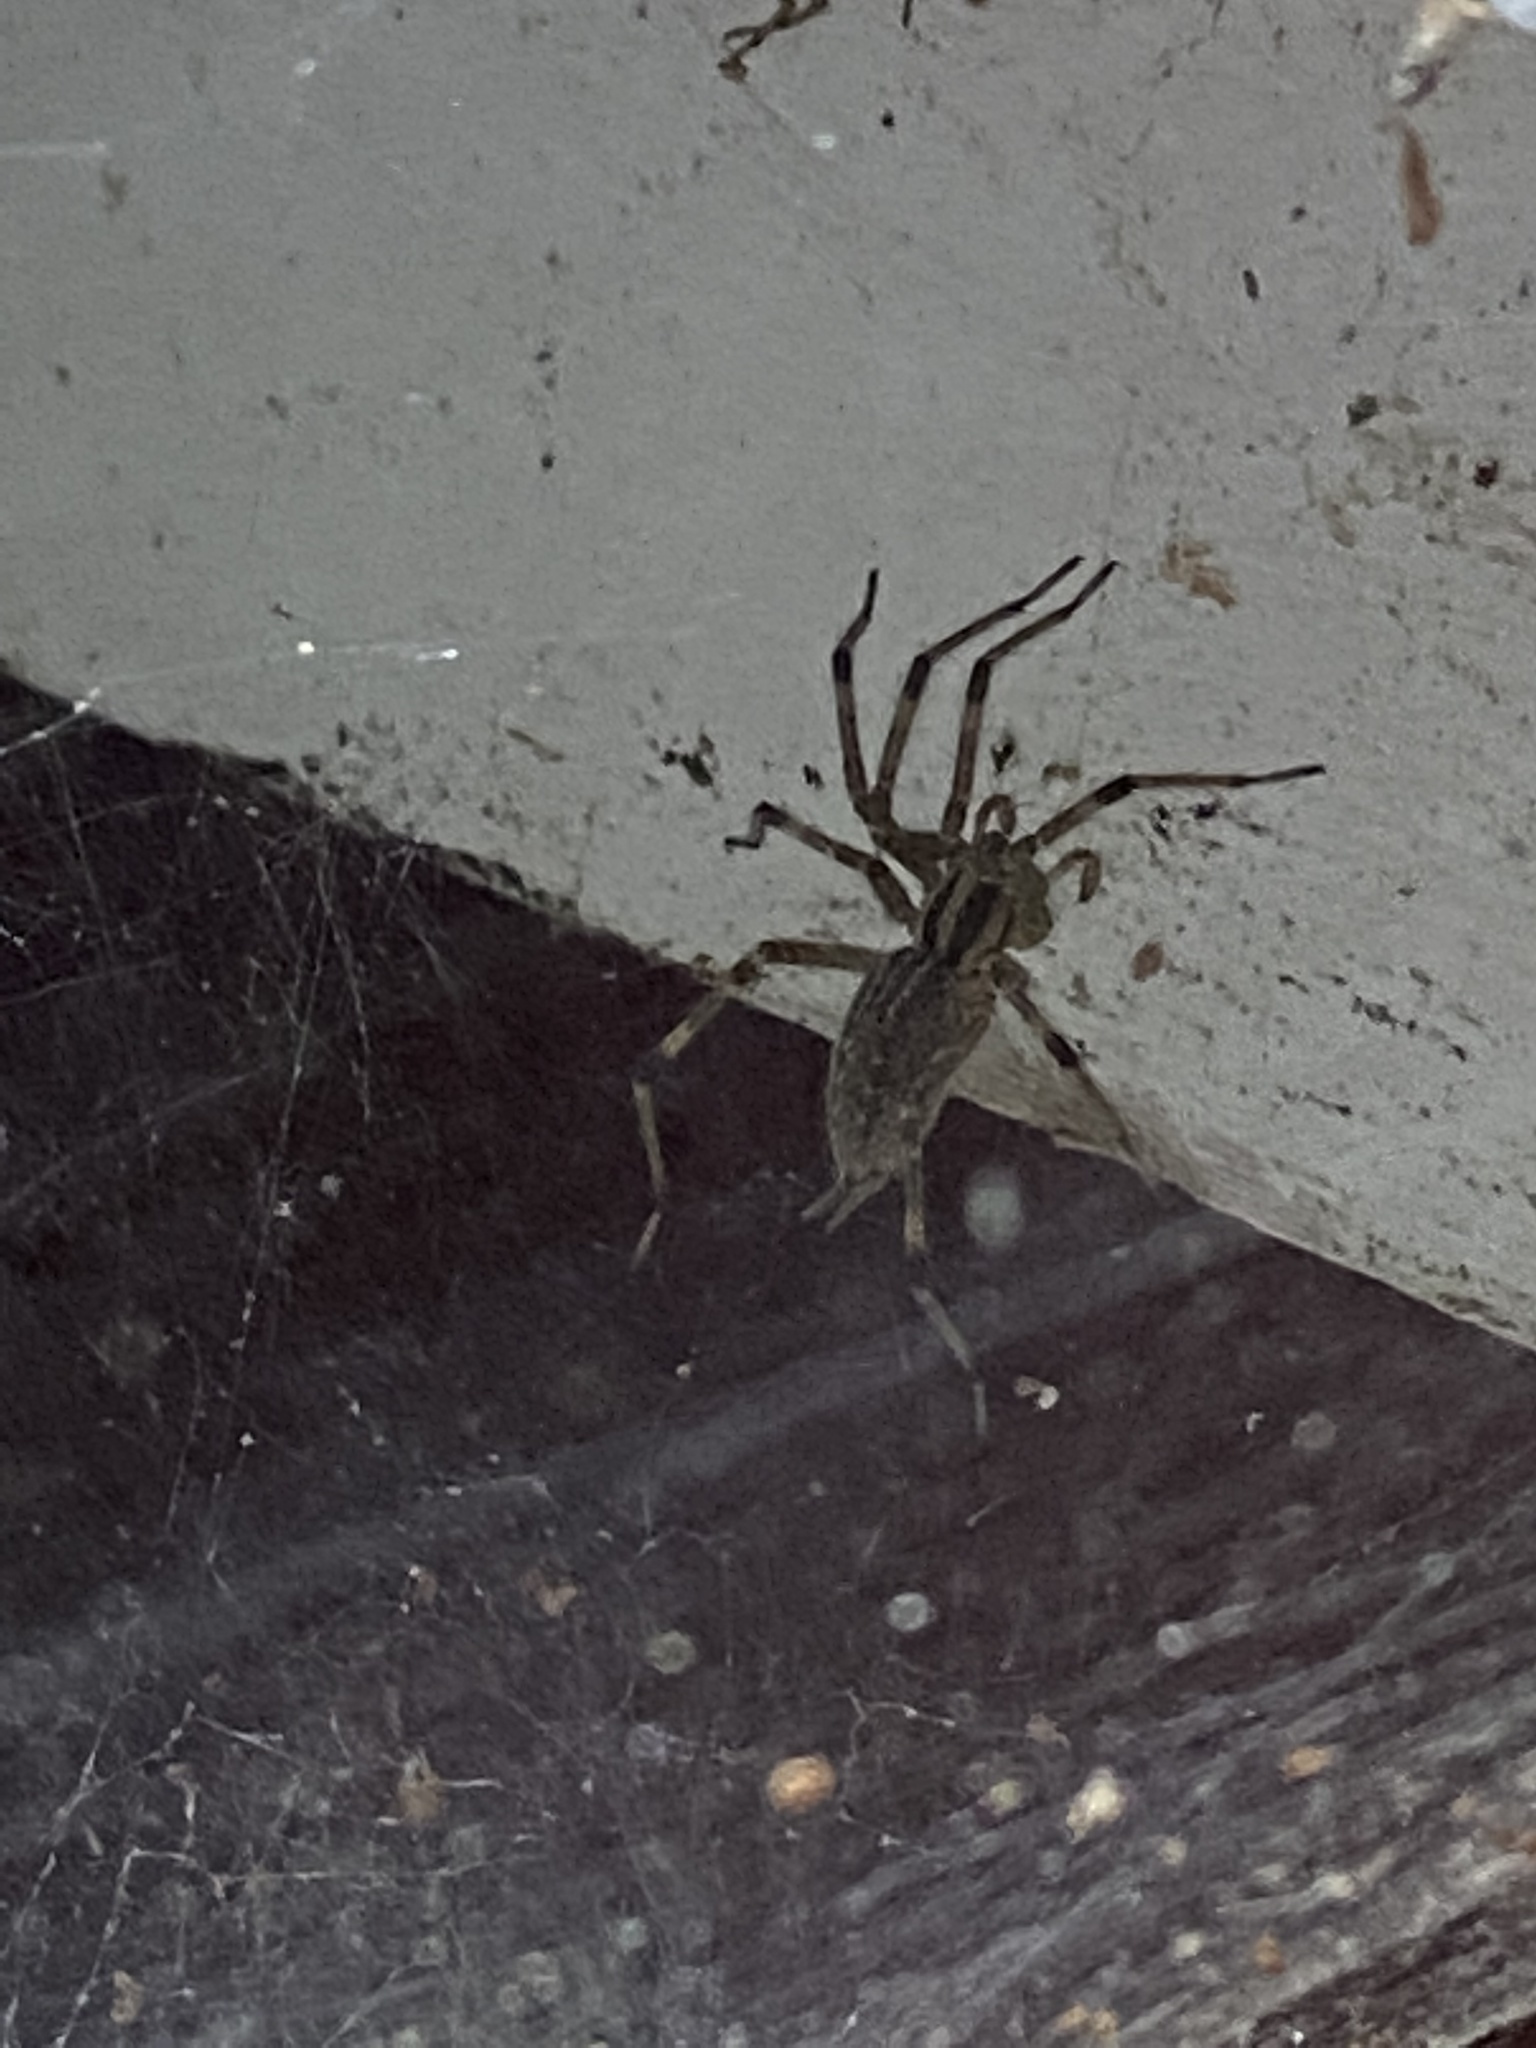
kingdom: Animalia
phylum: Arthropoda
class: Arachnida
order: Araneae
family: Agelenidae
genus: Agelenopsis
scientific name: Agelenopsis
